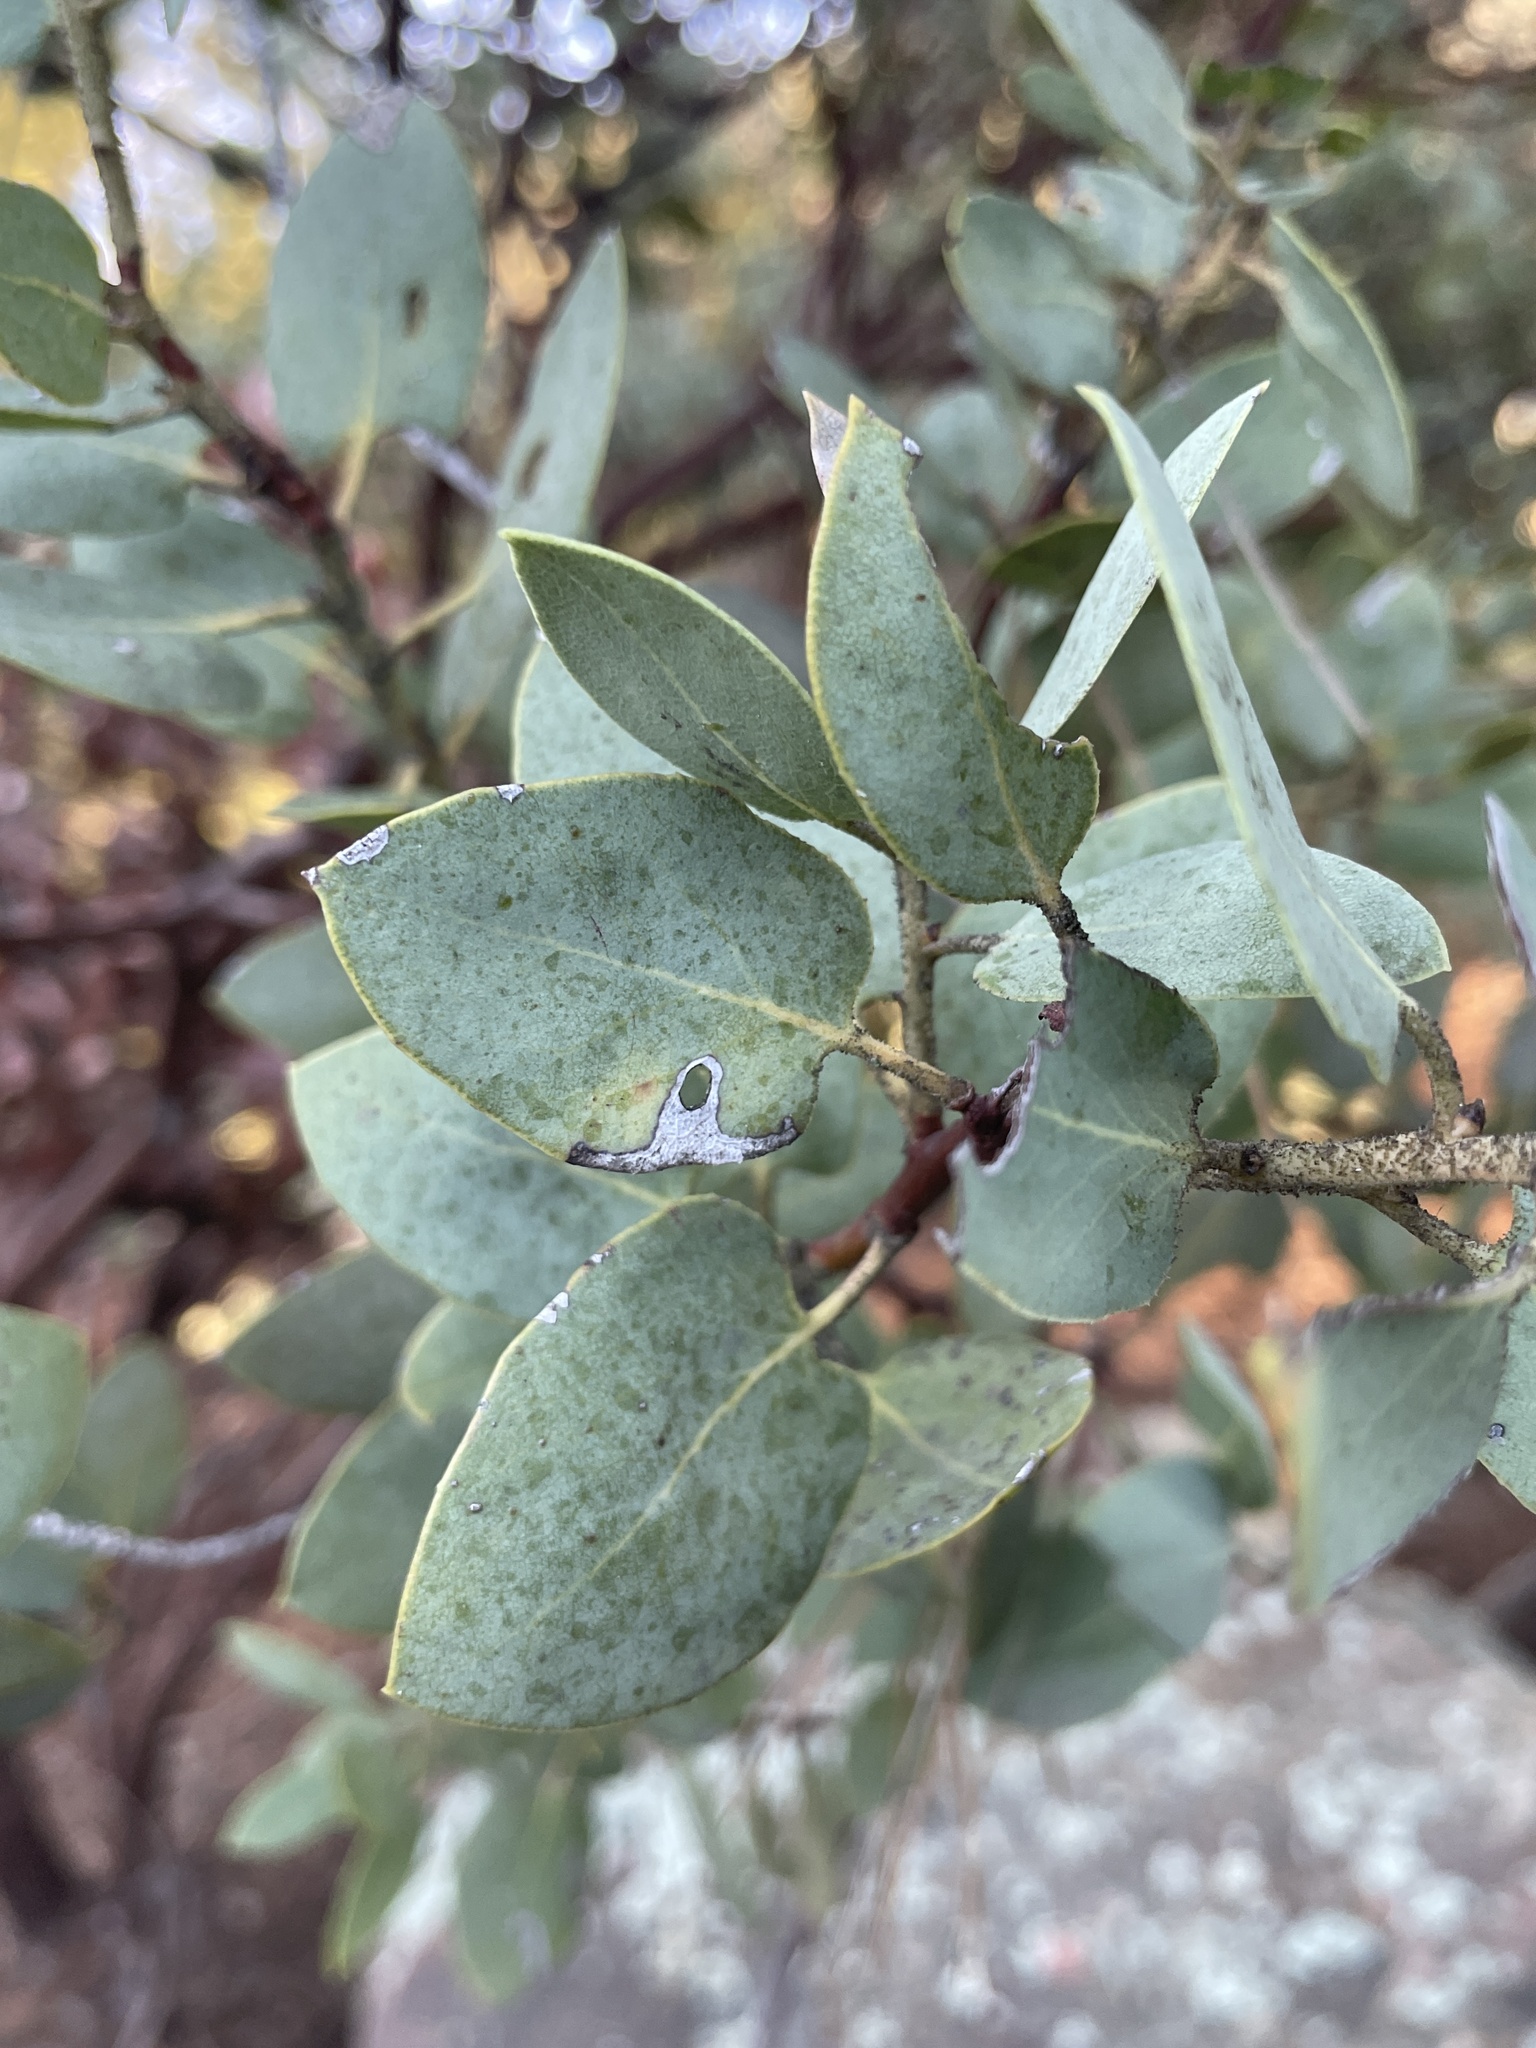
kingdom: Plantae
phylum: Tracheophyta
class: Magnoliopsida
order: Ericales
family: Ericaceae
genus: Arctostaphylos
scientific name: Arctostaphylos glauca
